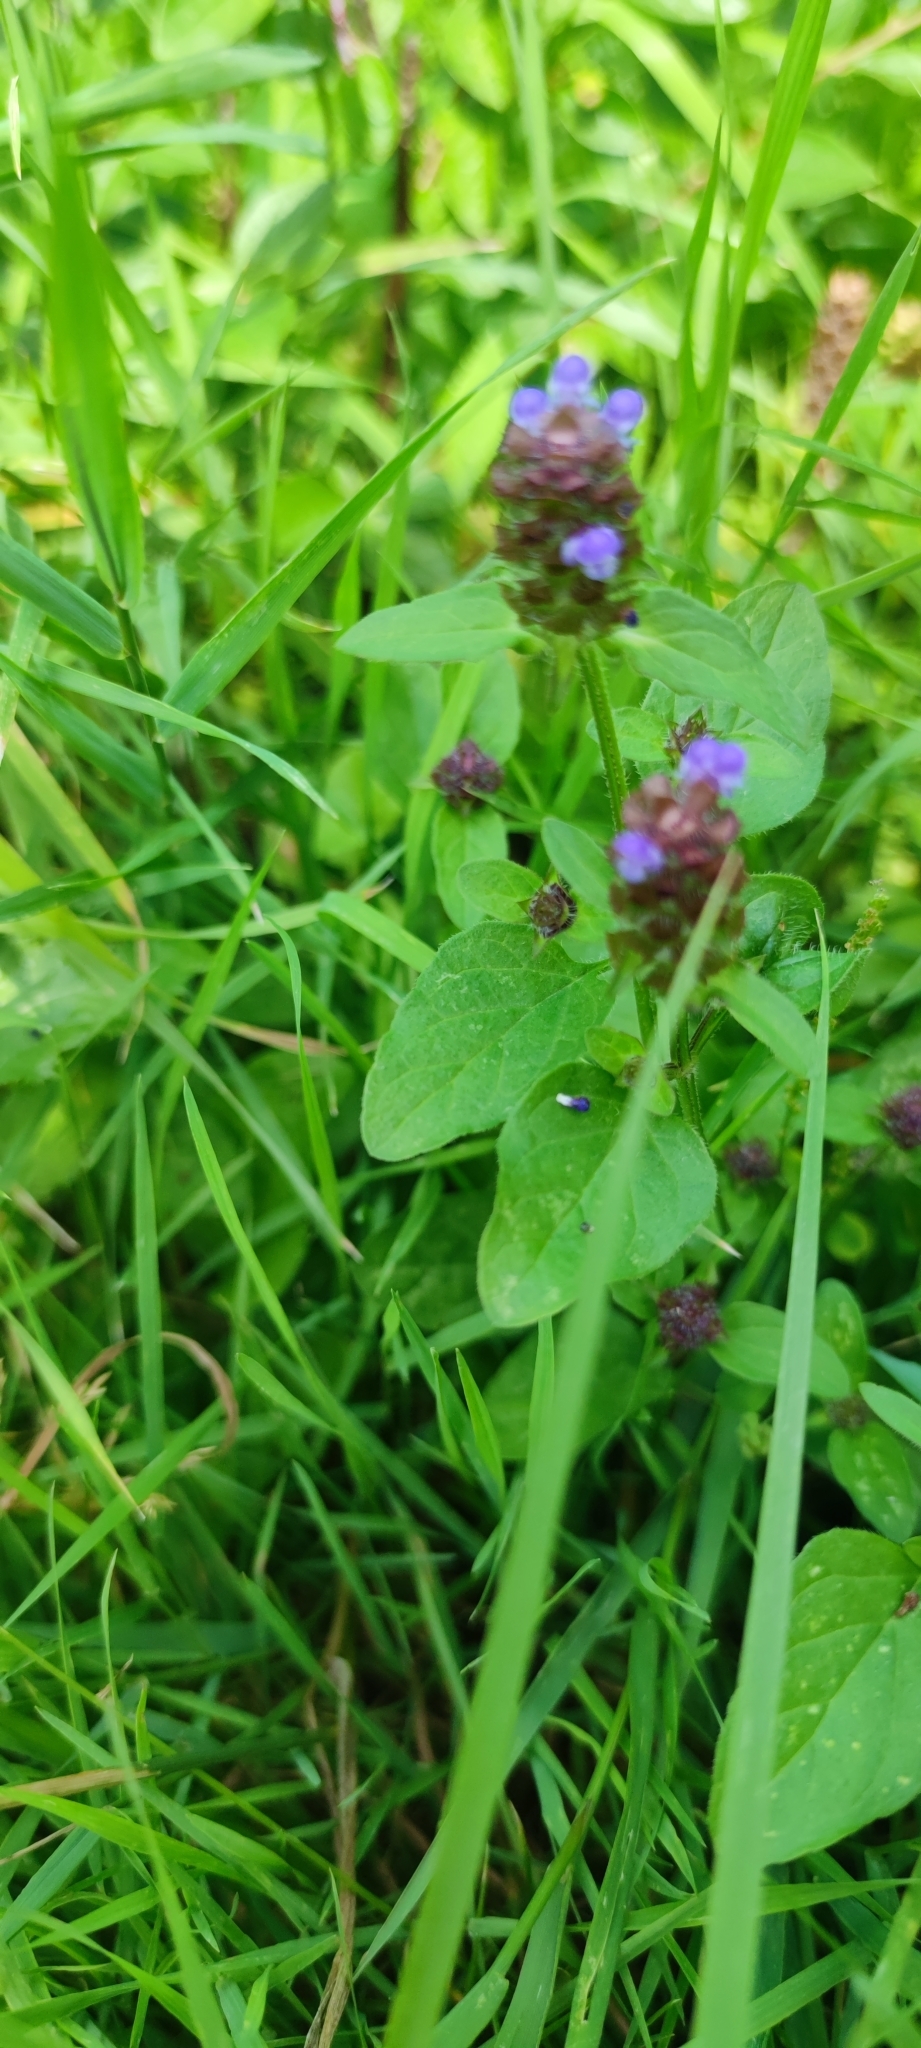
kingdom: Plantae
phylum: Tracheophyta
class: Magnoliopsida
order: Lamiales
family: Lamiaceae
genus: Prunella
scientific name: Prunella vulgaris
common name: Heal-all
